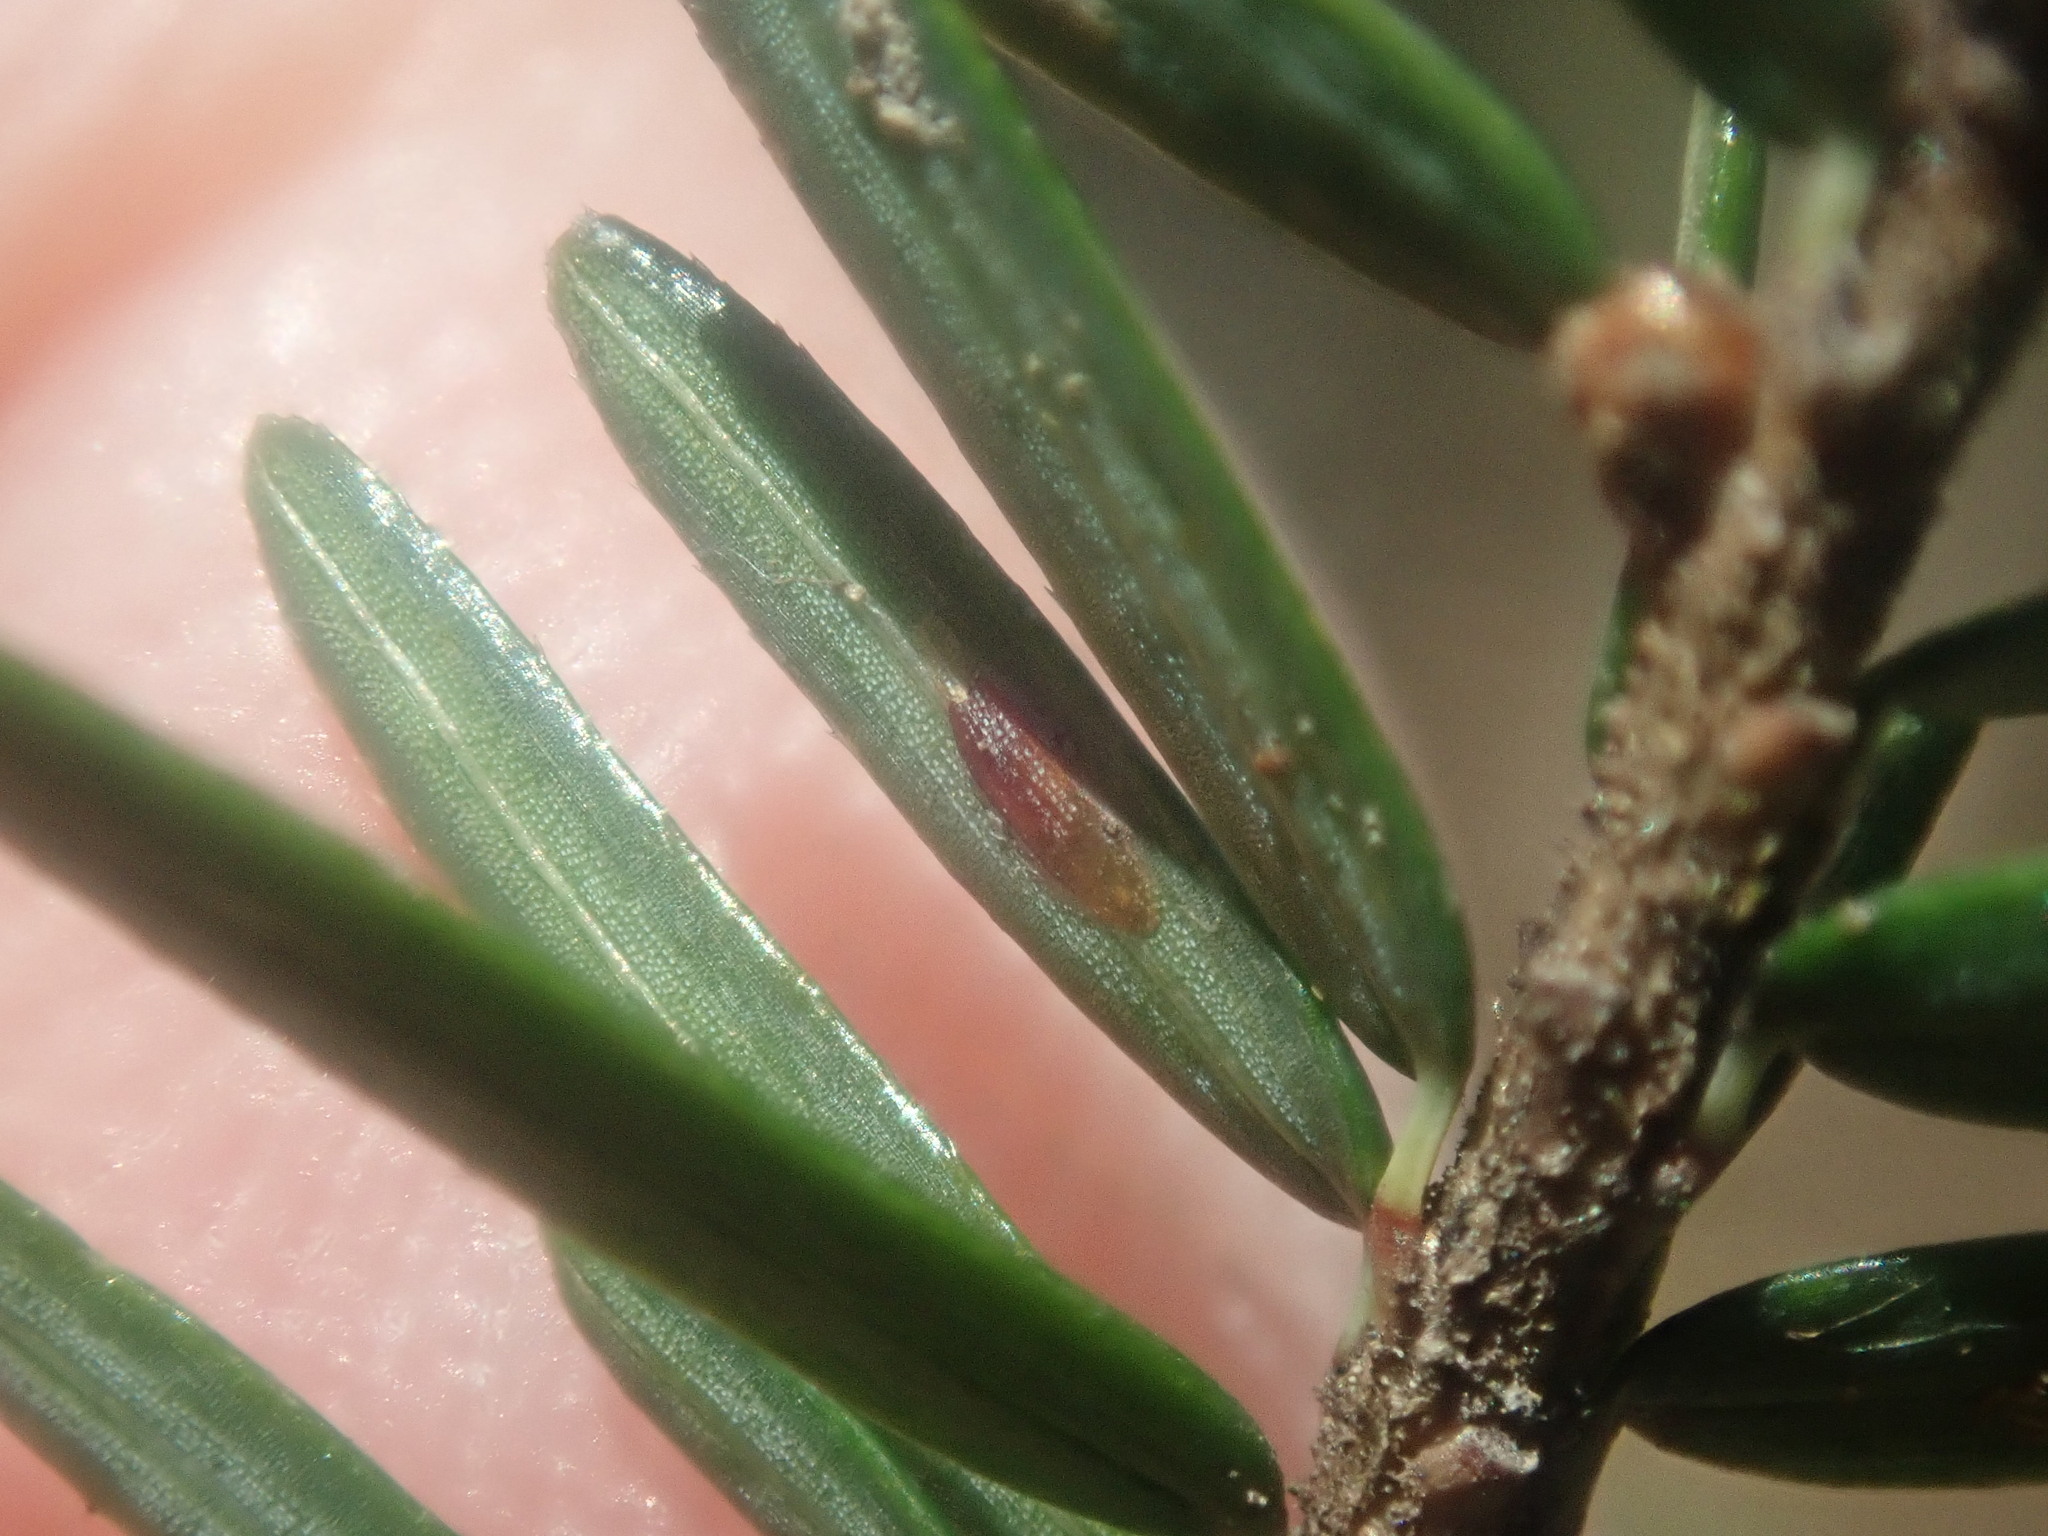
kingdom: Animalia
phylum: Arthropoda
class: Insecta
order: Hemiptera
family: Diaspididae
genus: Fiorinia
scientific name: Fiorinia externa
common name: Elongate hemlock scale
